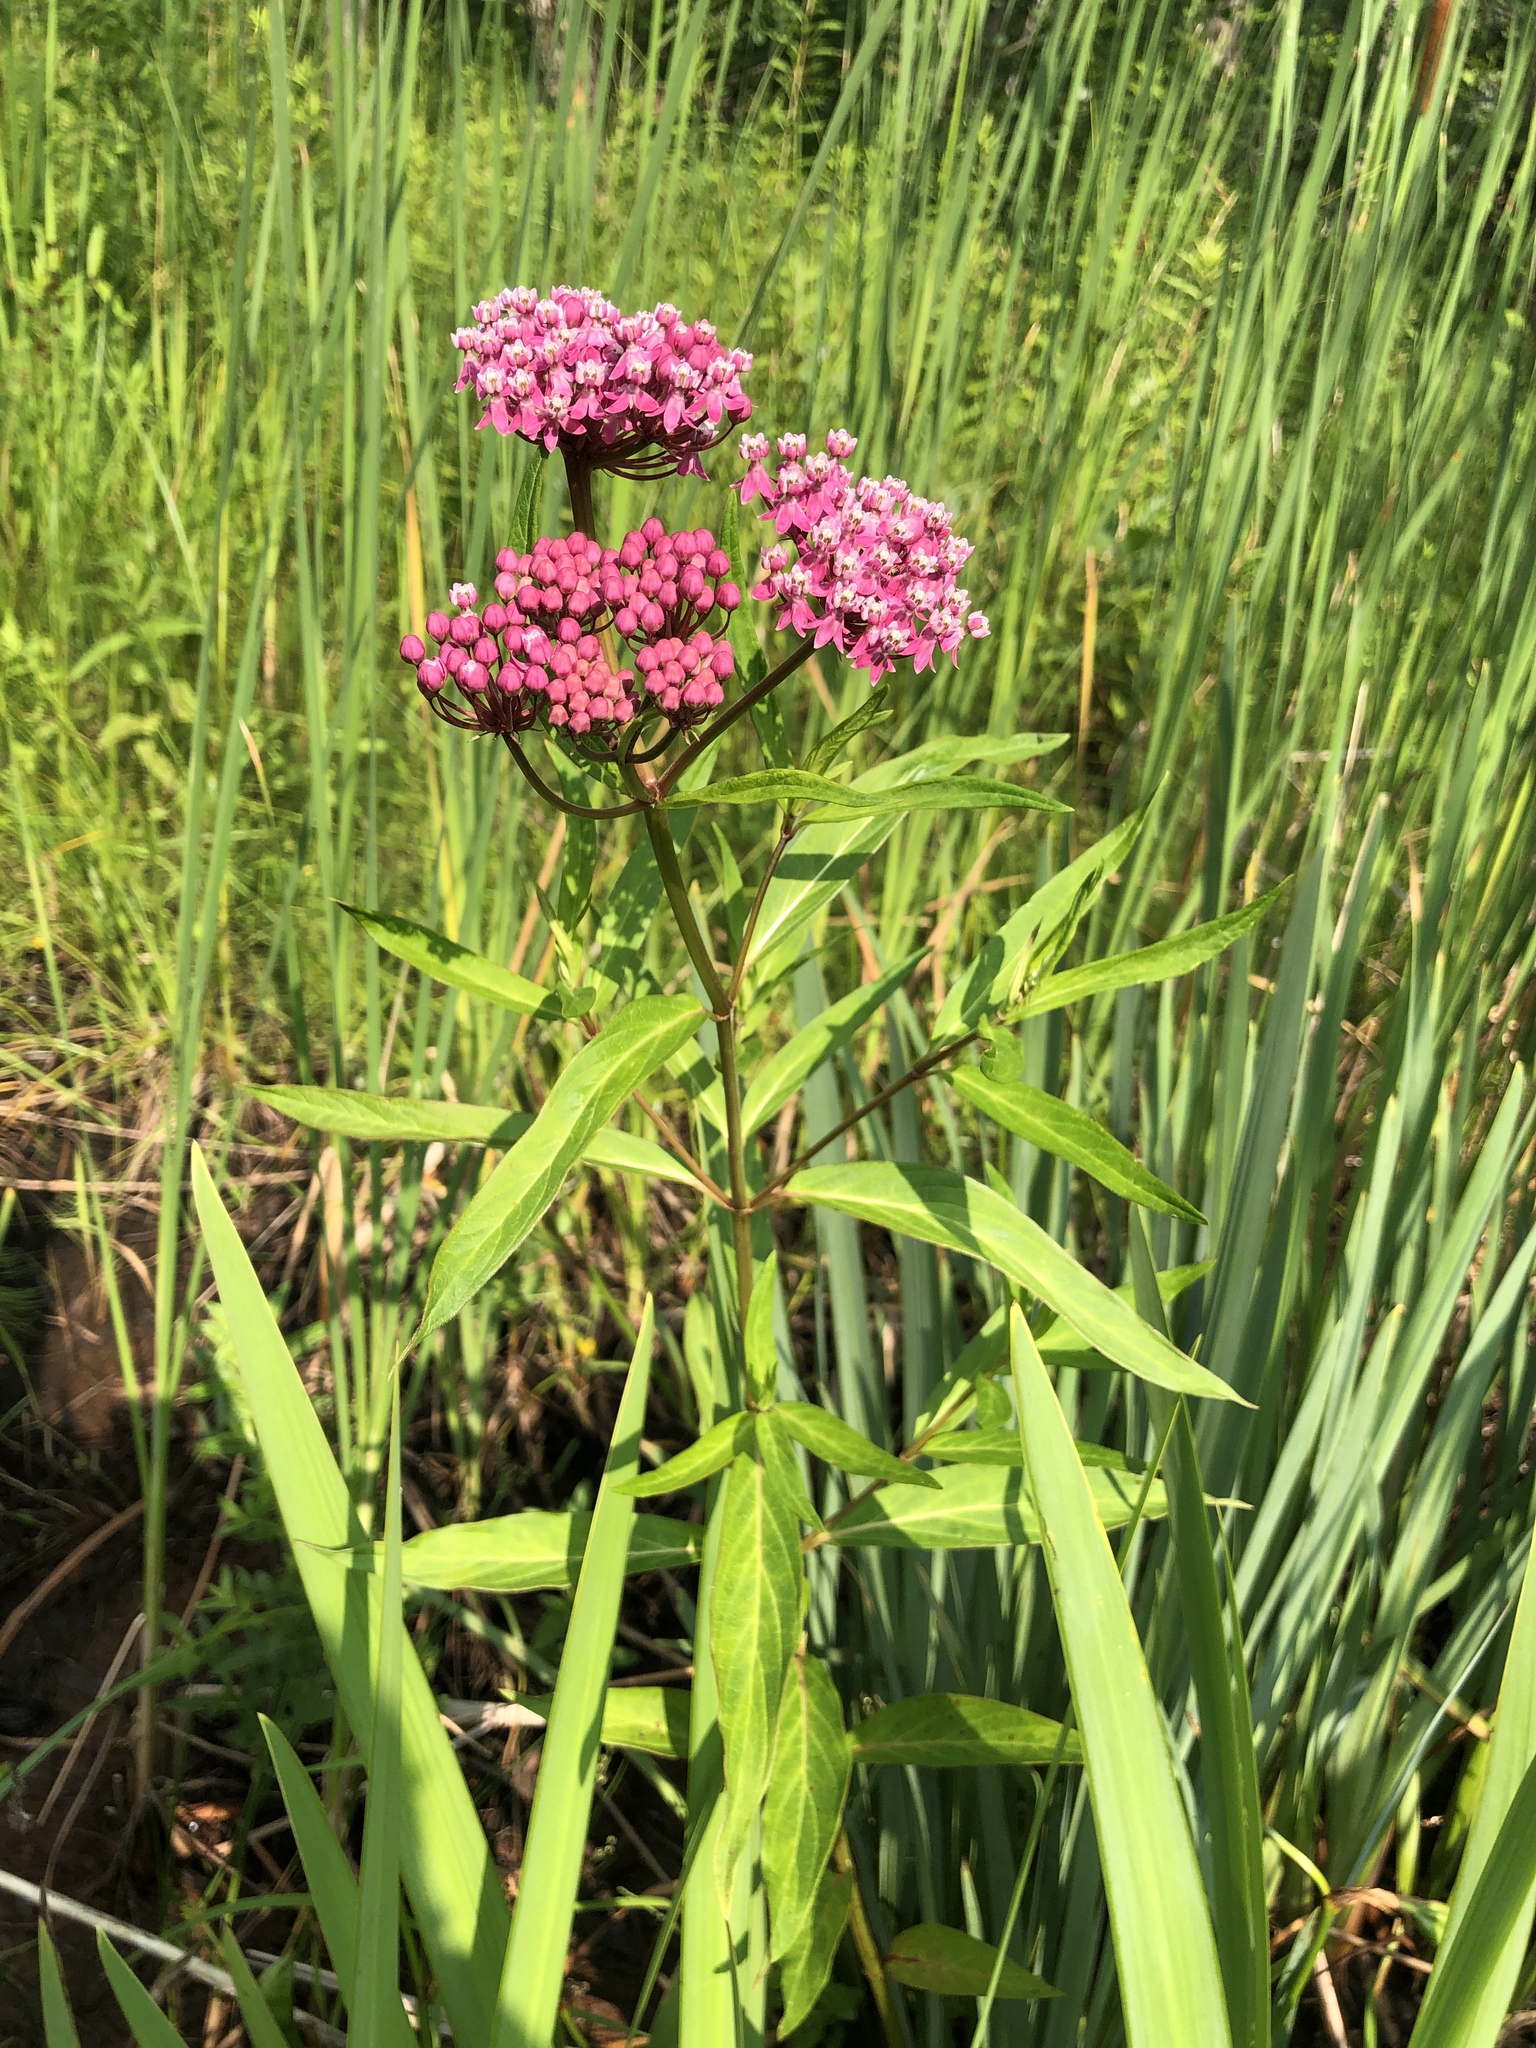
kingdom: Plantae
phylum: Tracheophyta
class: Magnoliopsida
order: Gentianales
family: Apocynaceae
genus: Asclepias
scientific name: Asclepias incarnata
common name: Swamp milkweed
